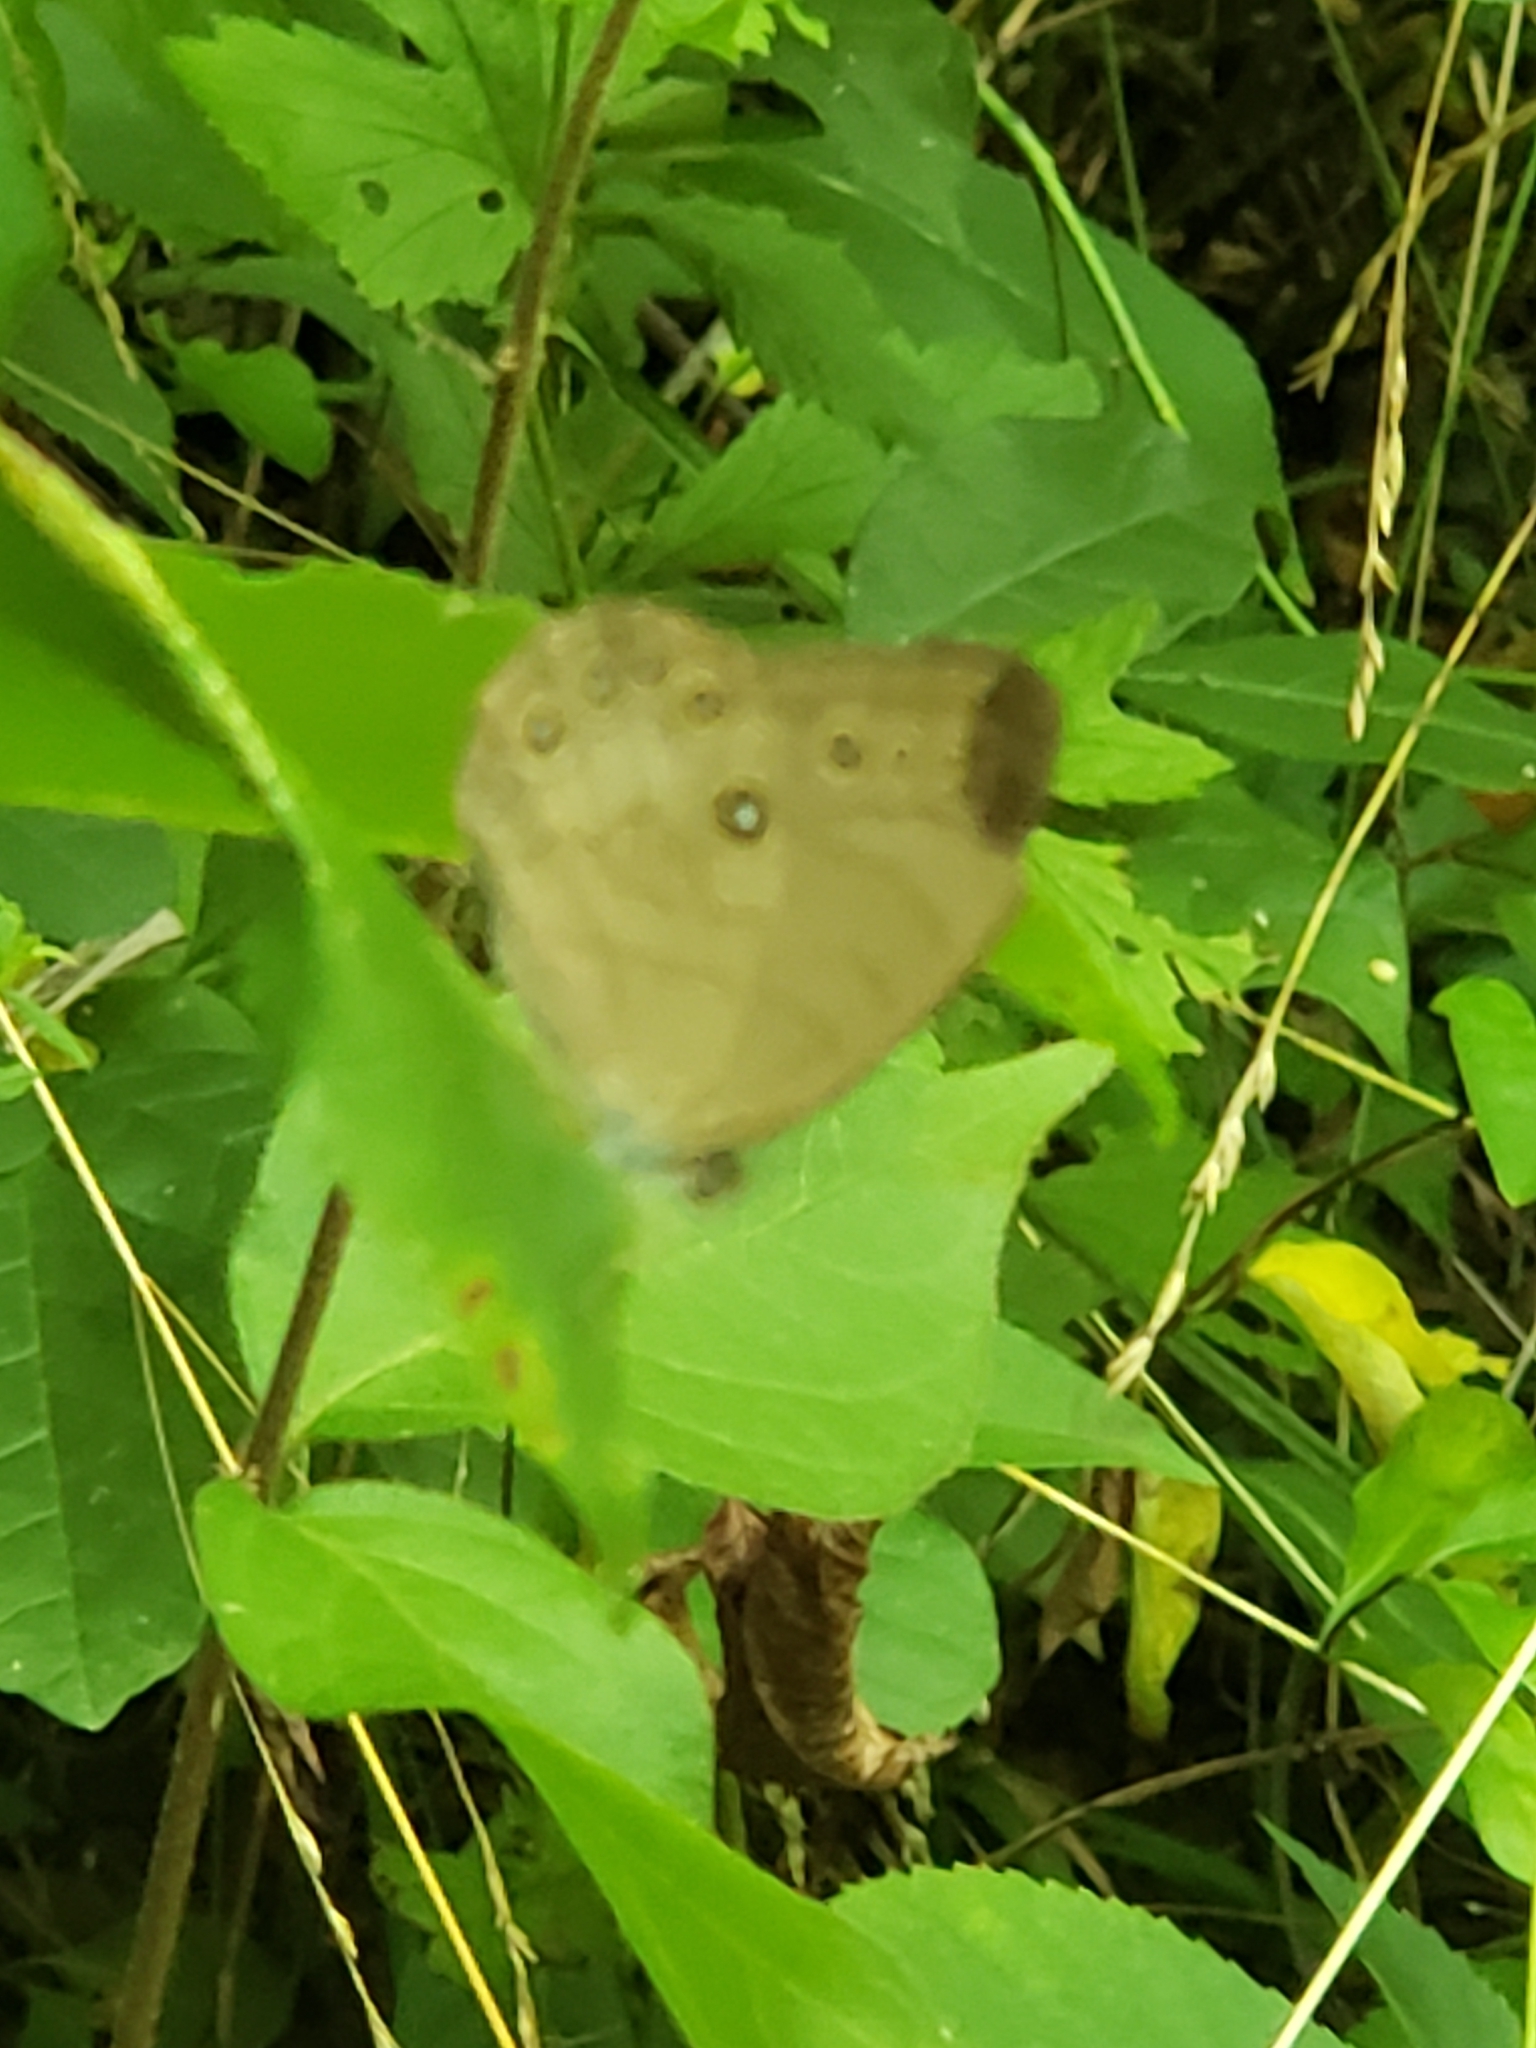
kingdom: Animalia
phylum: Arthropoda
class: Insecta
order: Lepidoptera
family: Nymphalidae
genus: Lethe
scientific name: Lethe eurydice
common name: Eyed brown
